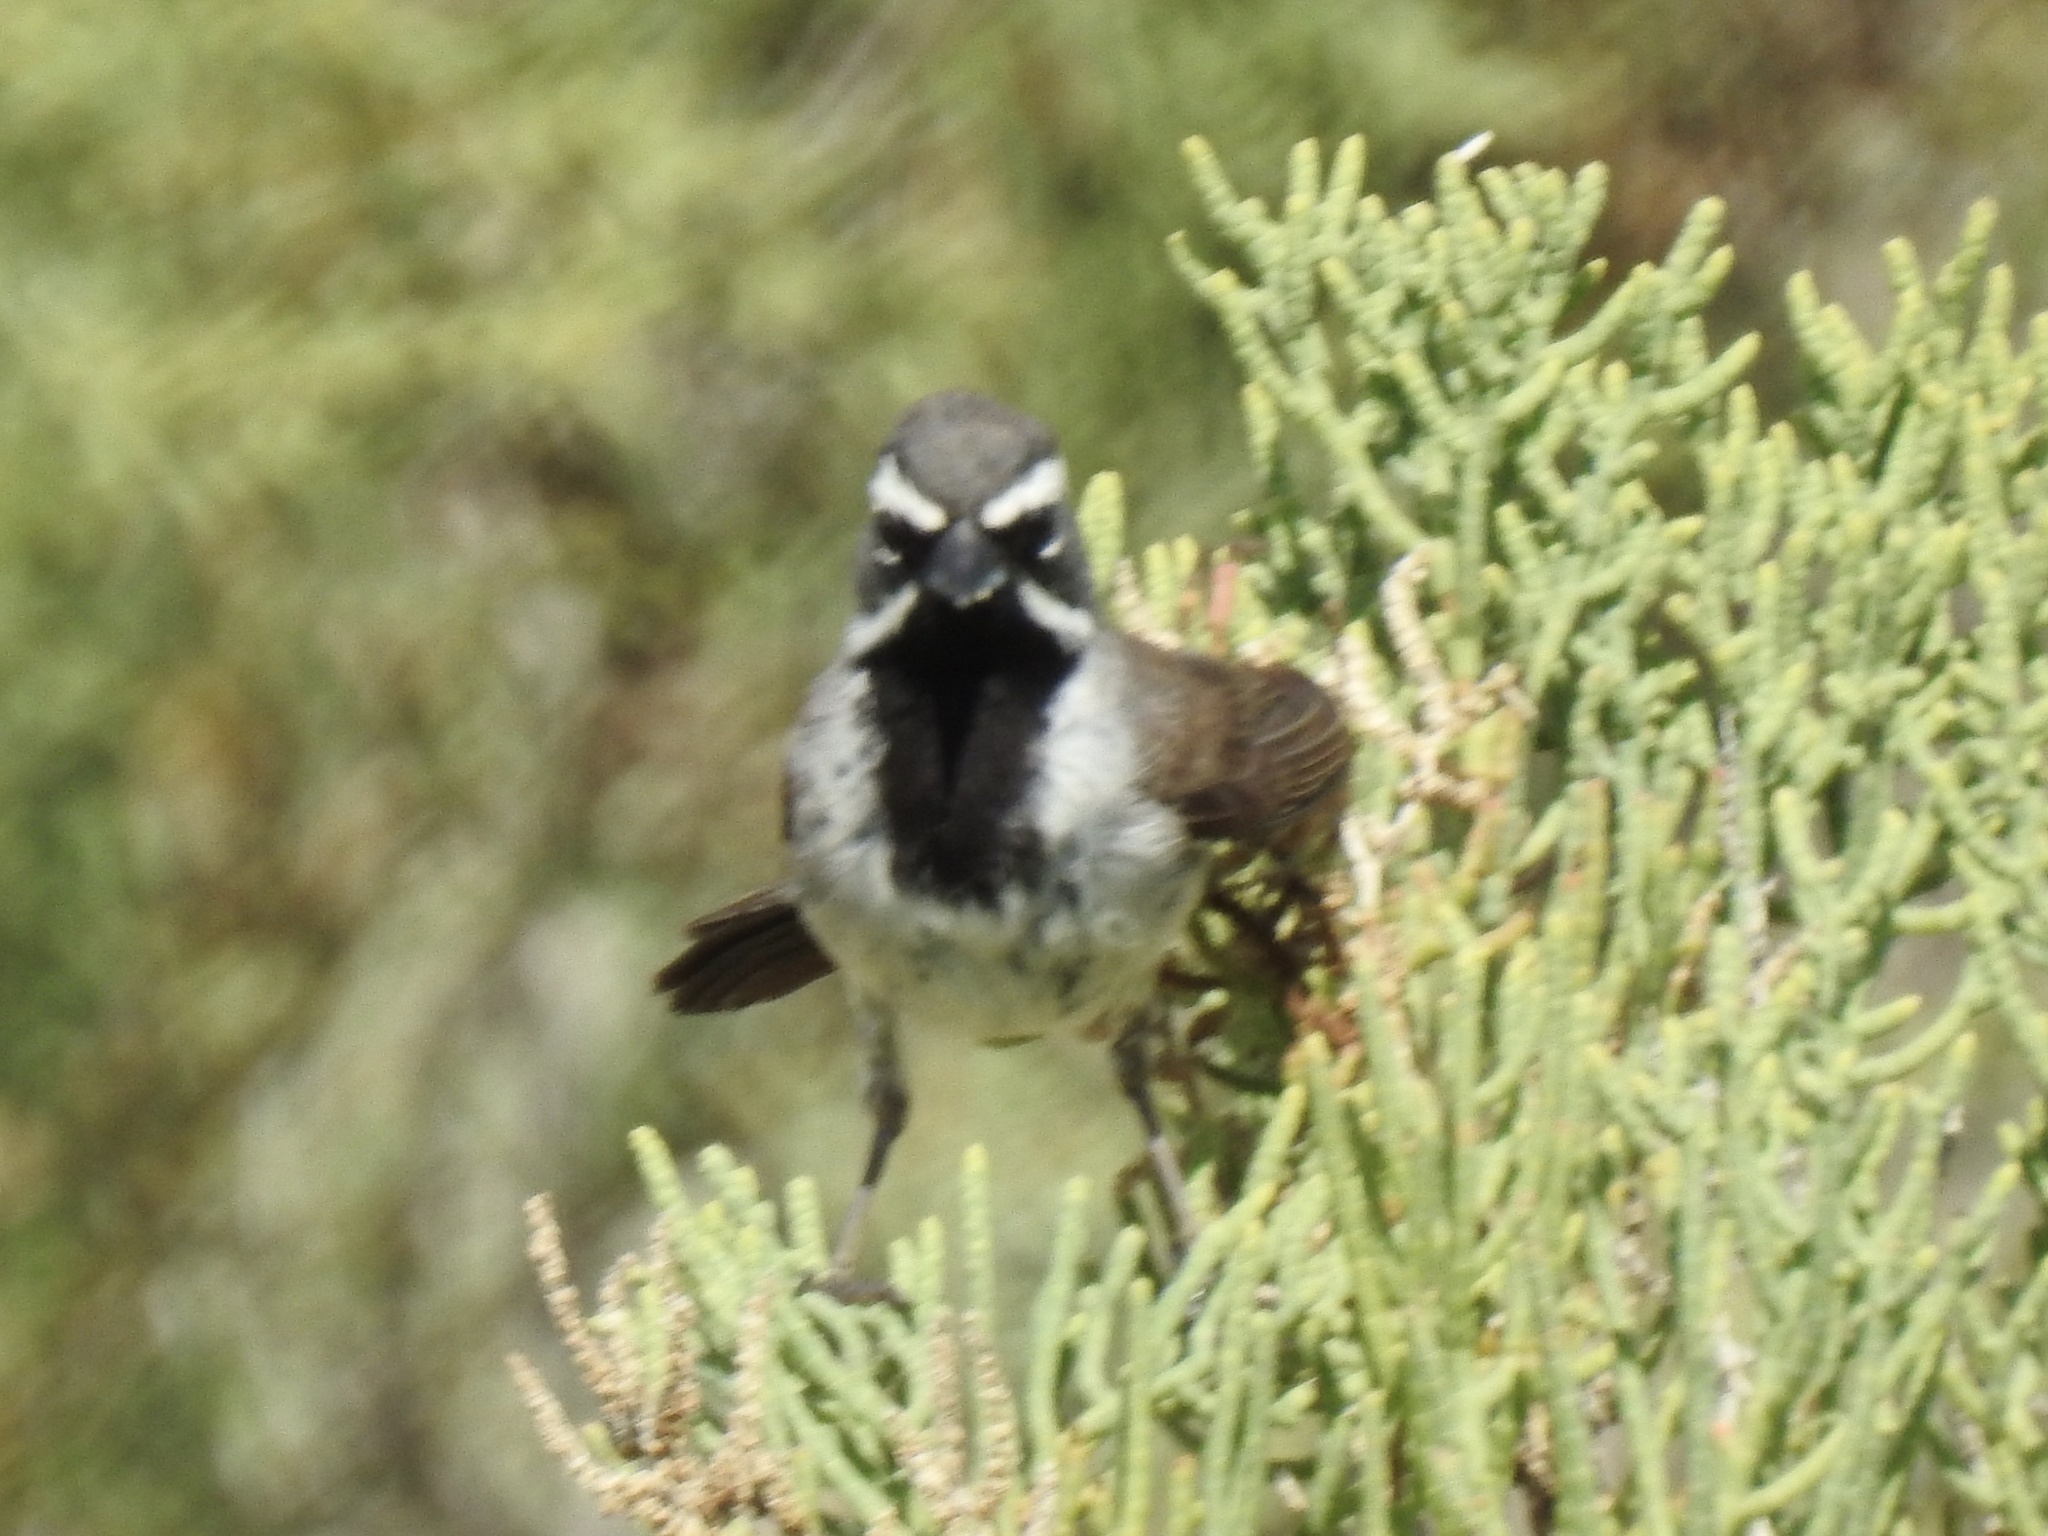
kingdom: Animalia
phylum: Chordata
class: Aves
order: Passeriformes
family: Passerellidae
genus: Amphispiza
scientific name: Amphispiza bilineata
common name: Black-throated sparrow
